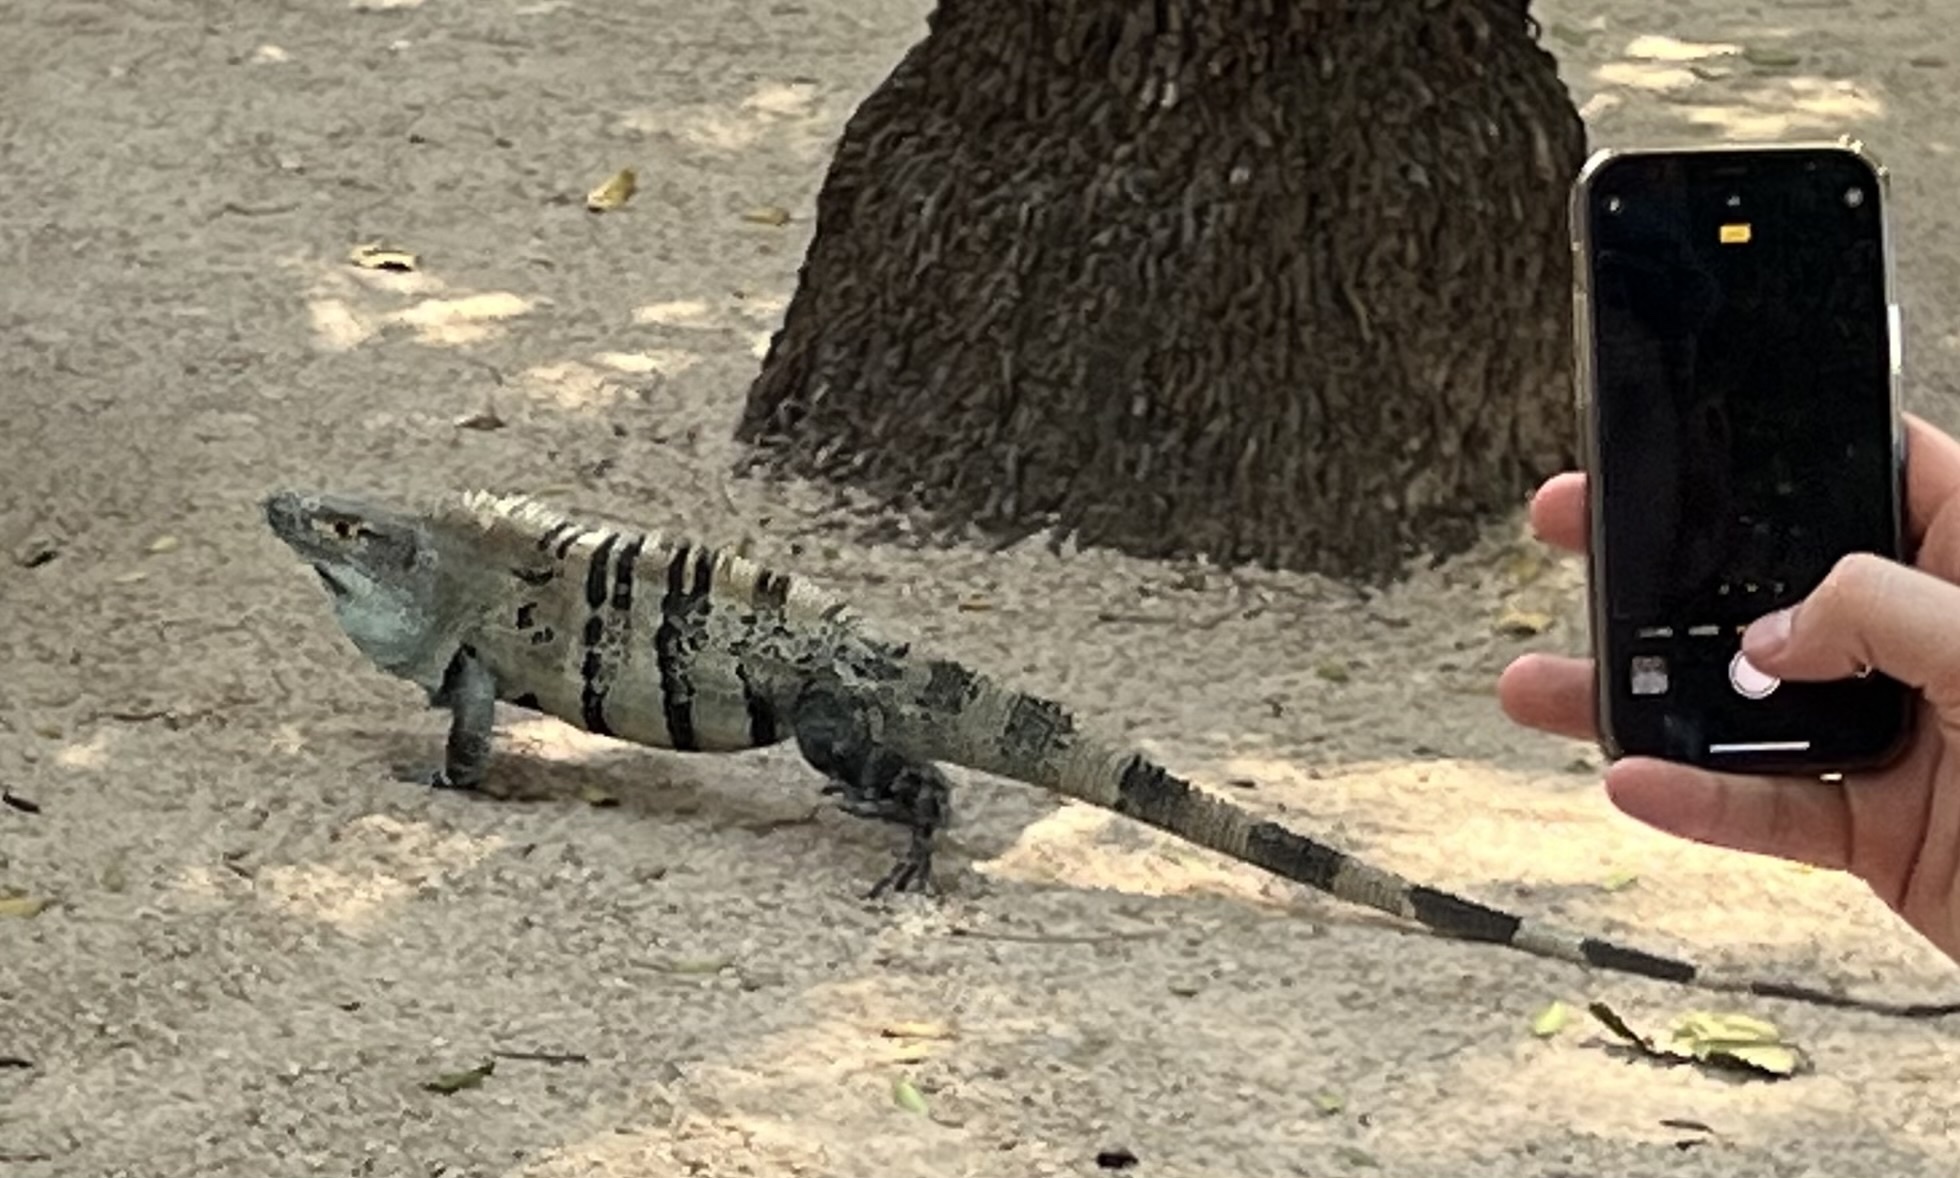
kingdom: Animalia
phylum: Chordata
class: Squamata
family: Iguanidae
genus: Ctenosaura
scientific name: Ctenosaura similis
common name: Black spiny-tailed iguana
